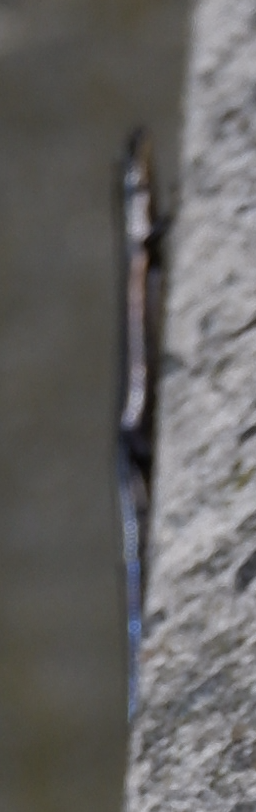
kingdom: Animalia
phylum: Chordata
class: Squamata
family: Scincidae
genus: Plestiodon
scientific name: Plestiodon fasciatus
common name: Five-lined skink
